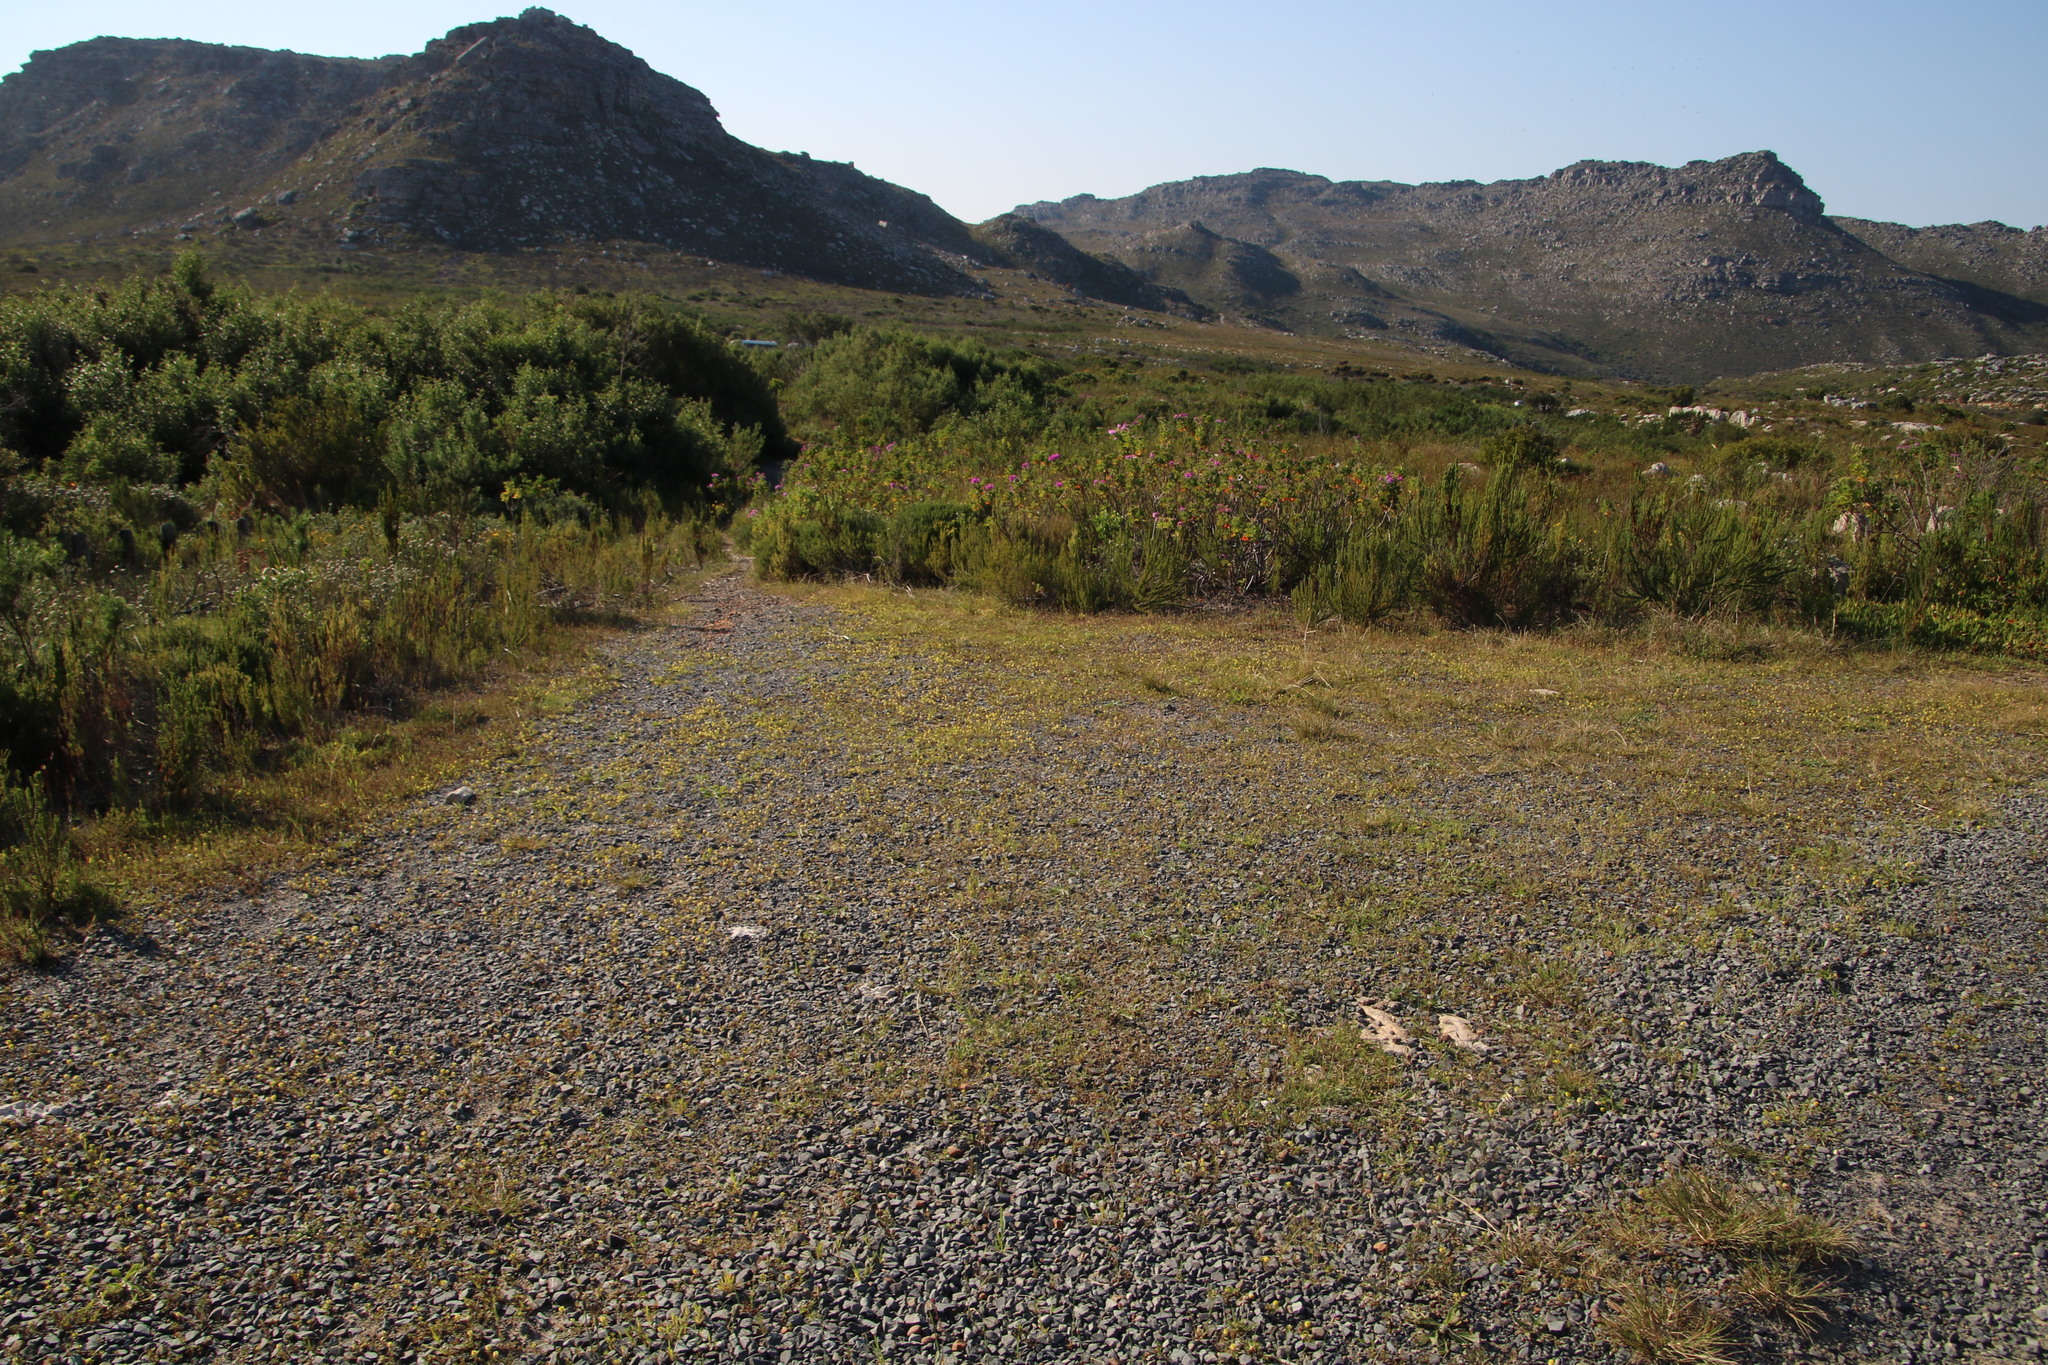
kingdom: Plantae
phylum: Tracheophyta
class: Magnoliopsida
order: Fabales
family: Fabaceae
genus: Trifolium
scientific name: Trifolium campestre
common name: Field clover
